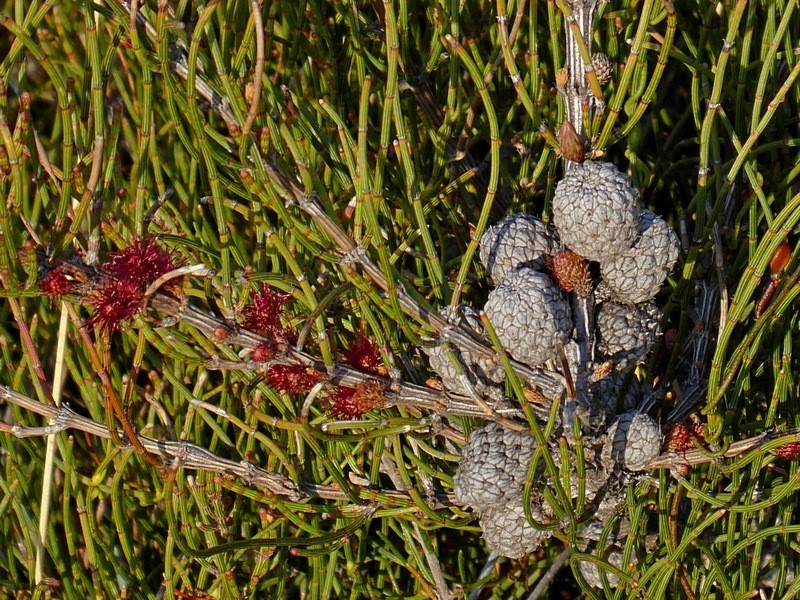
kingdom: Plantae
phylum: Tracheophyta
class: Magnoliopsida
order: Fagales
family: Casuarinaceae
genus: Allocasuarina
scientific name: Allocasuarina paludosa
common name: Scrub she-oak
